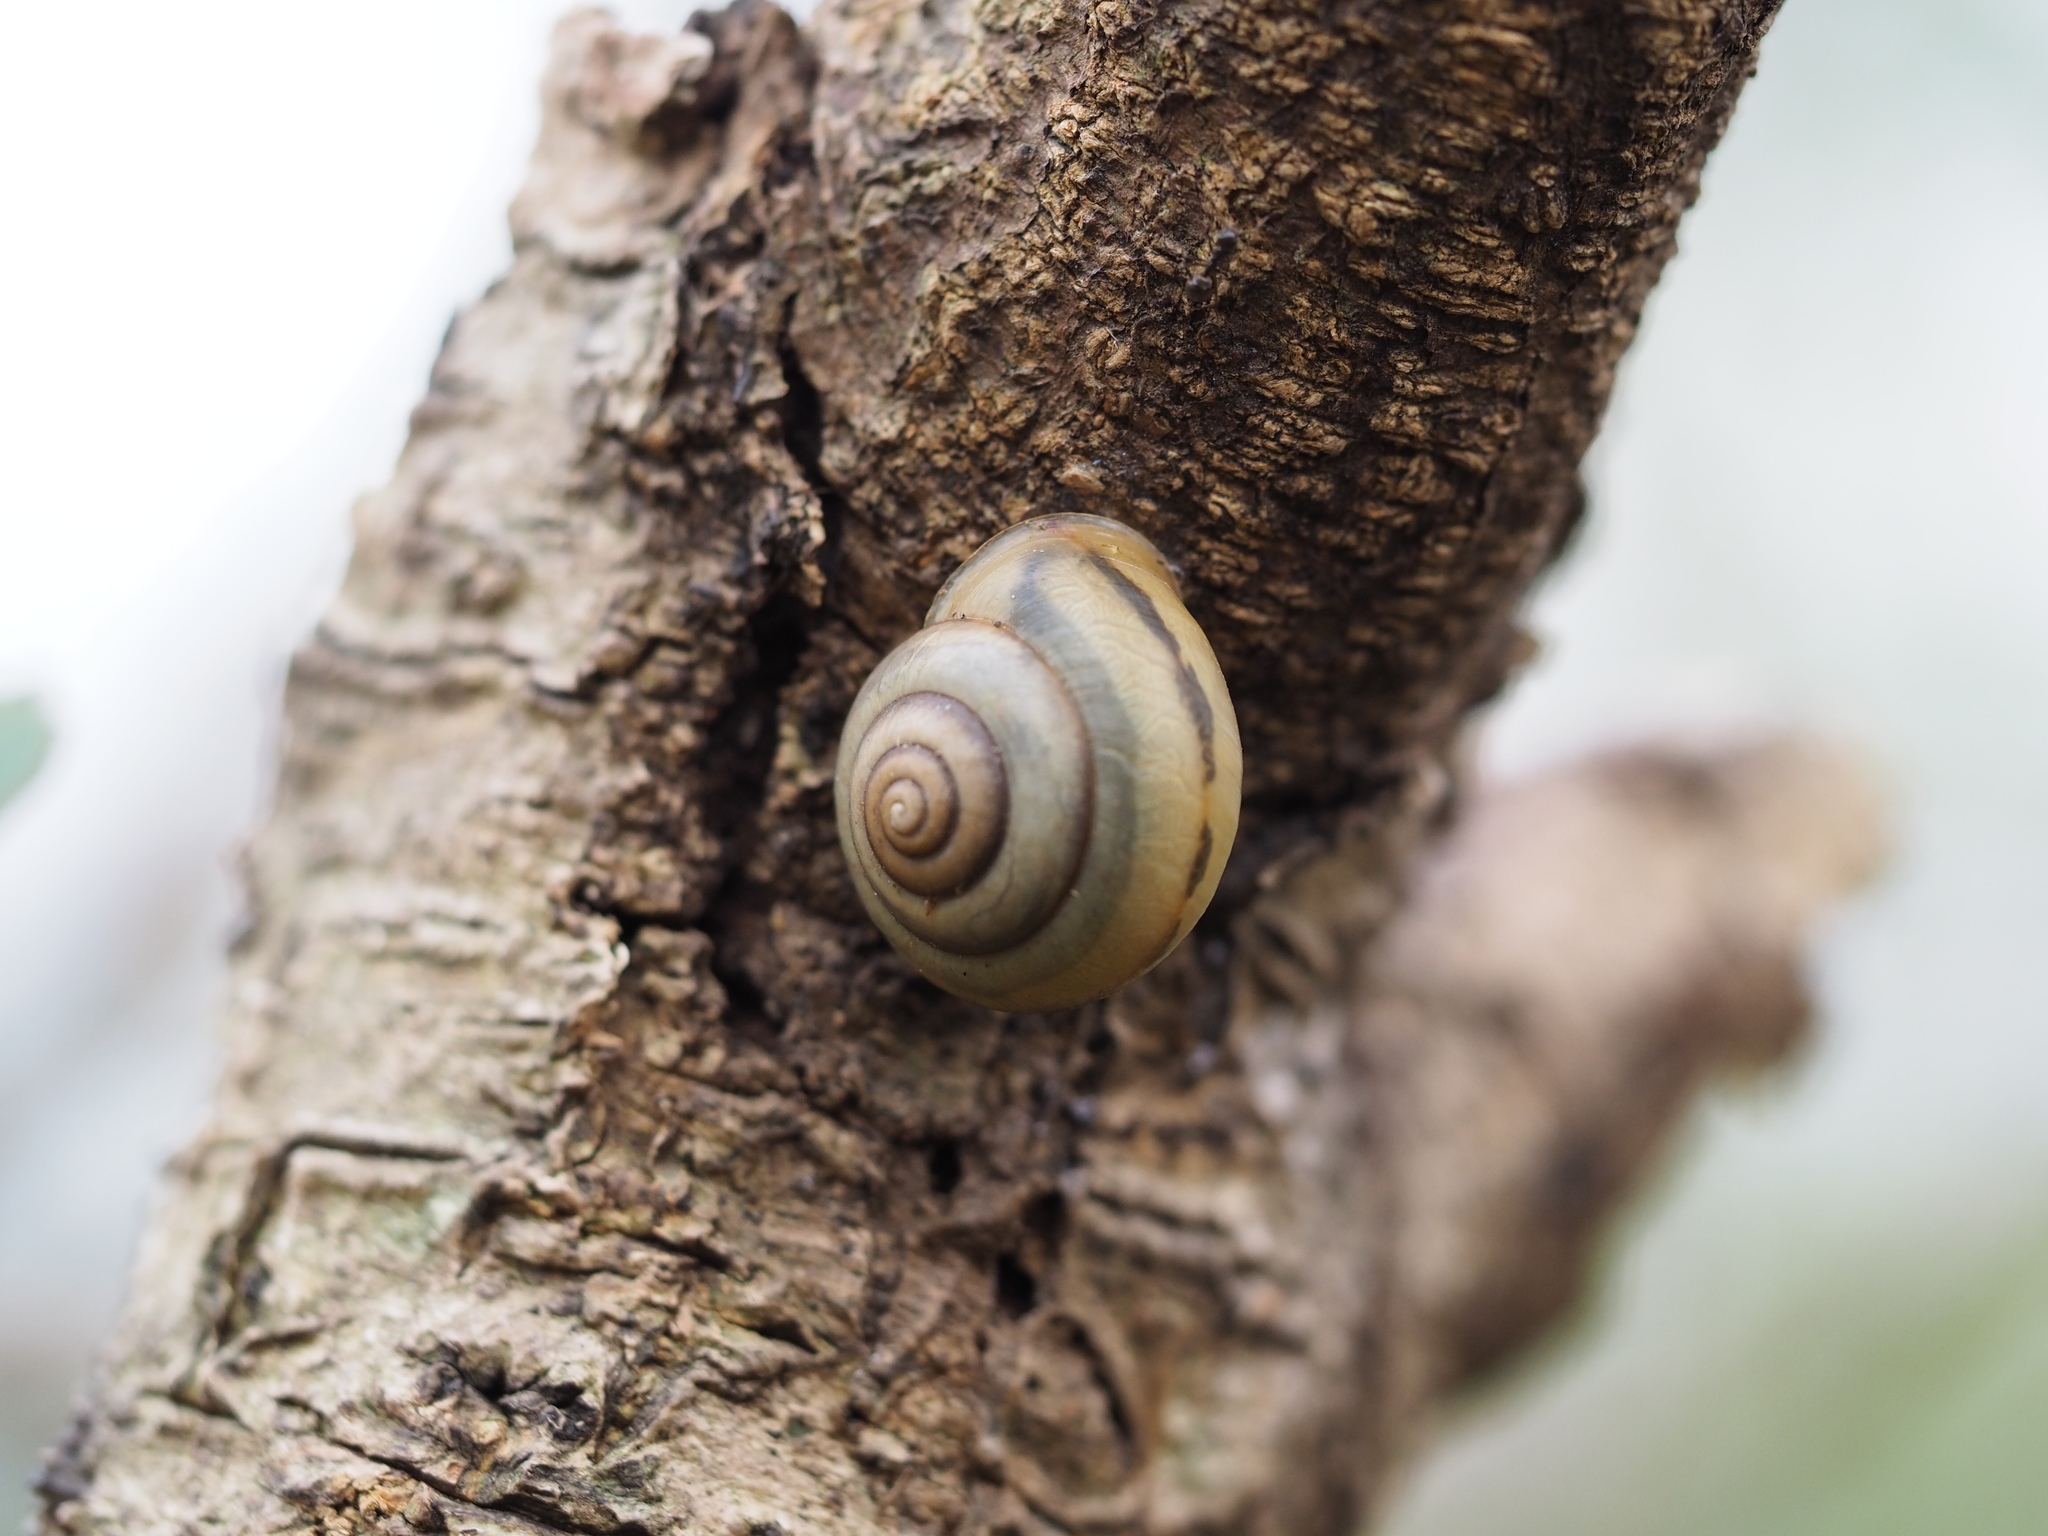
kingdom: Animalia
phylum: Mollusca
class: Gastropoda
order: Stylommatophora
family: Camaenidae
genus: Pancala
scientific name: Pancala batanica
